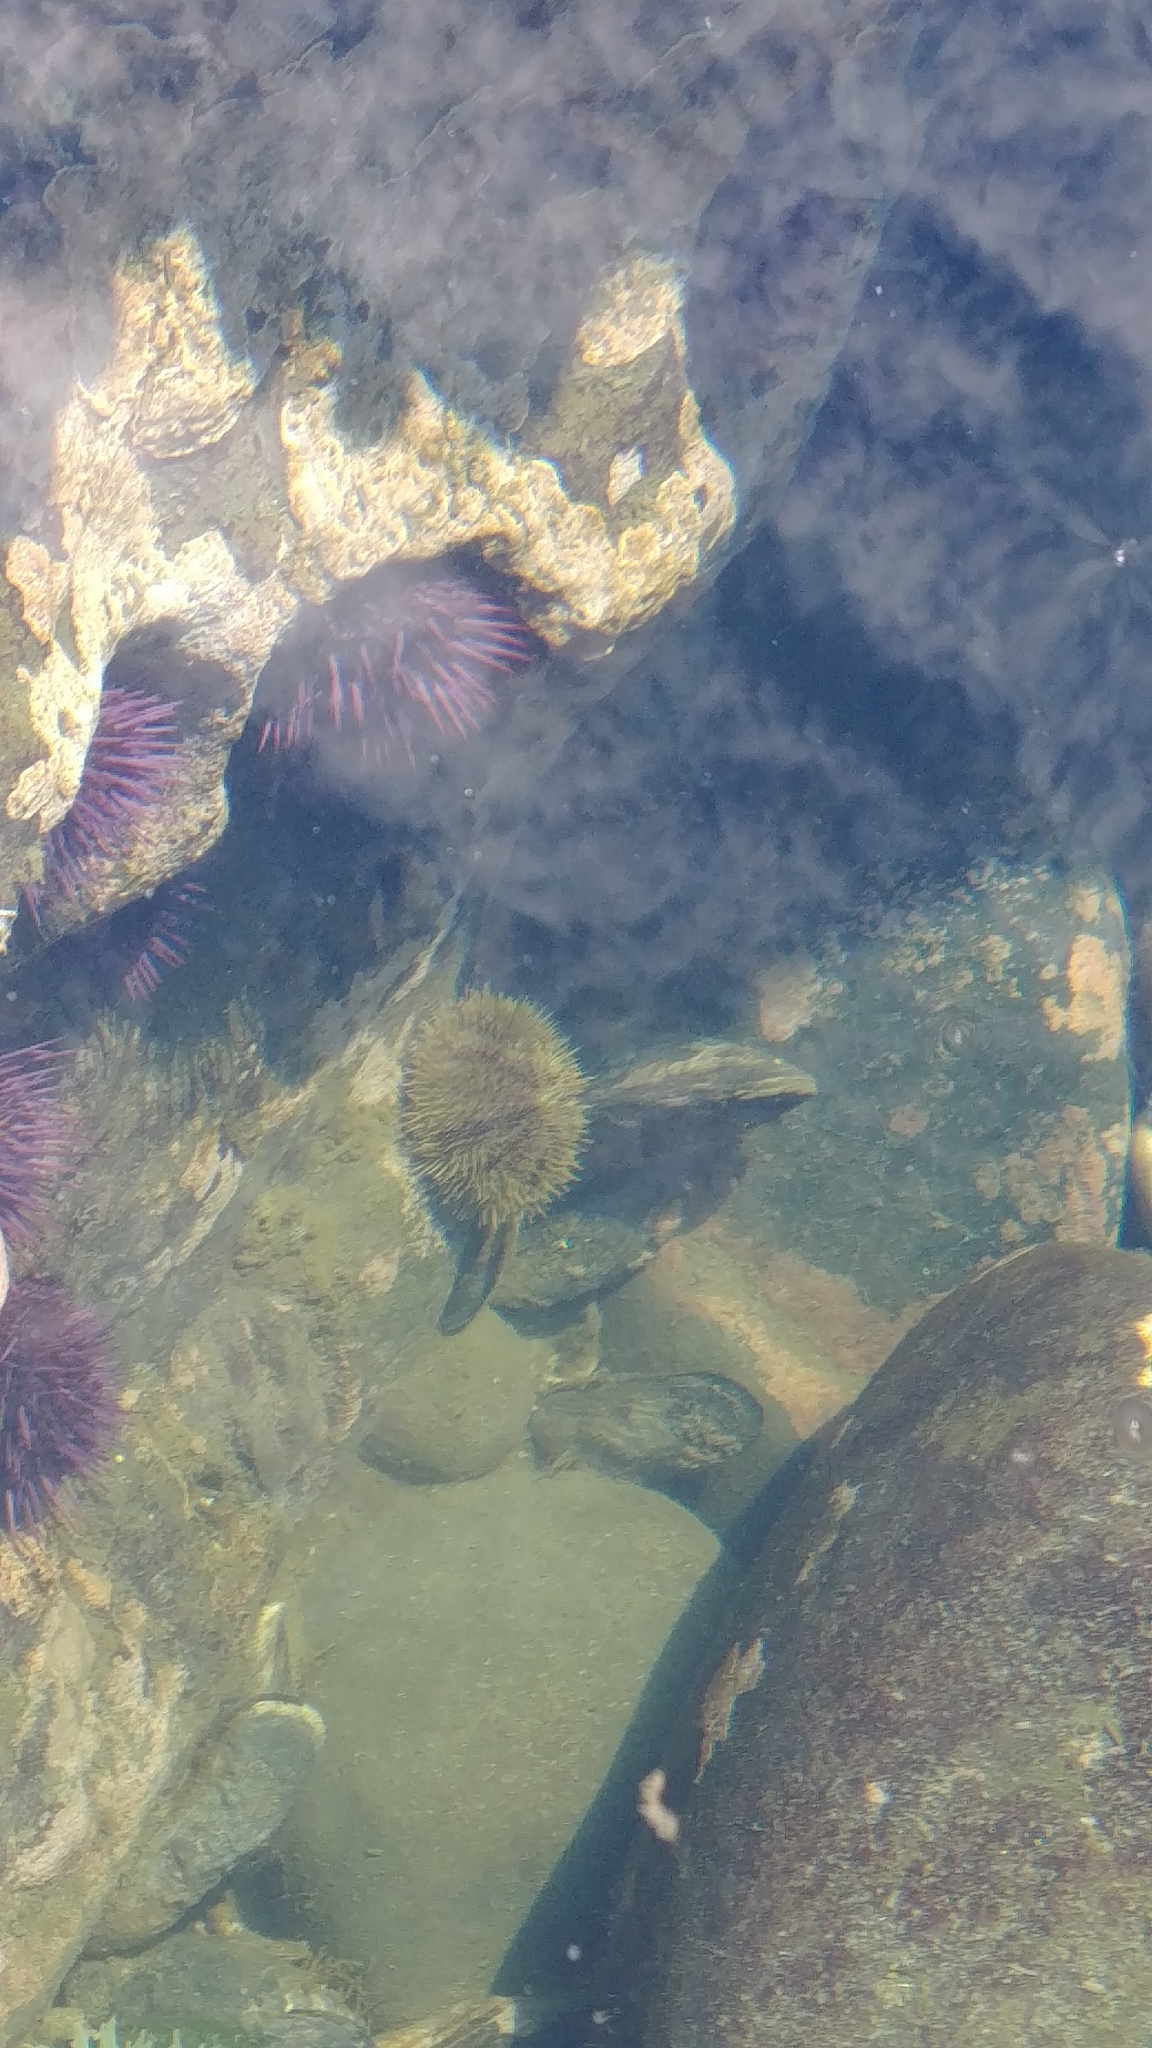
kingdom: Animalia
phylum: Echinodermata
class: Echinoidea
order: Camarodonta
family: Strongylocentrotidae
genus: Strongylocentrotus
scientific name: Strongylocentrotus droebachiensis
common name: Northern sea urchin
